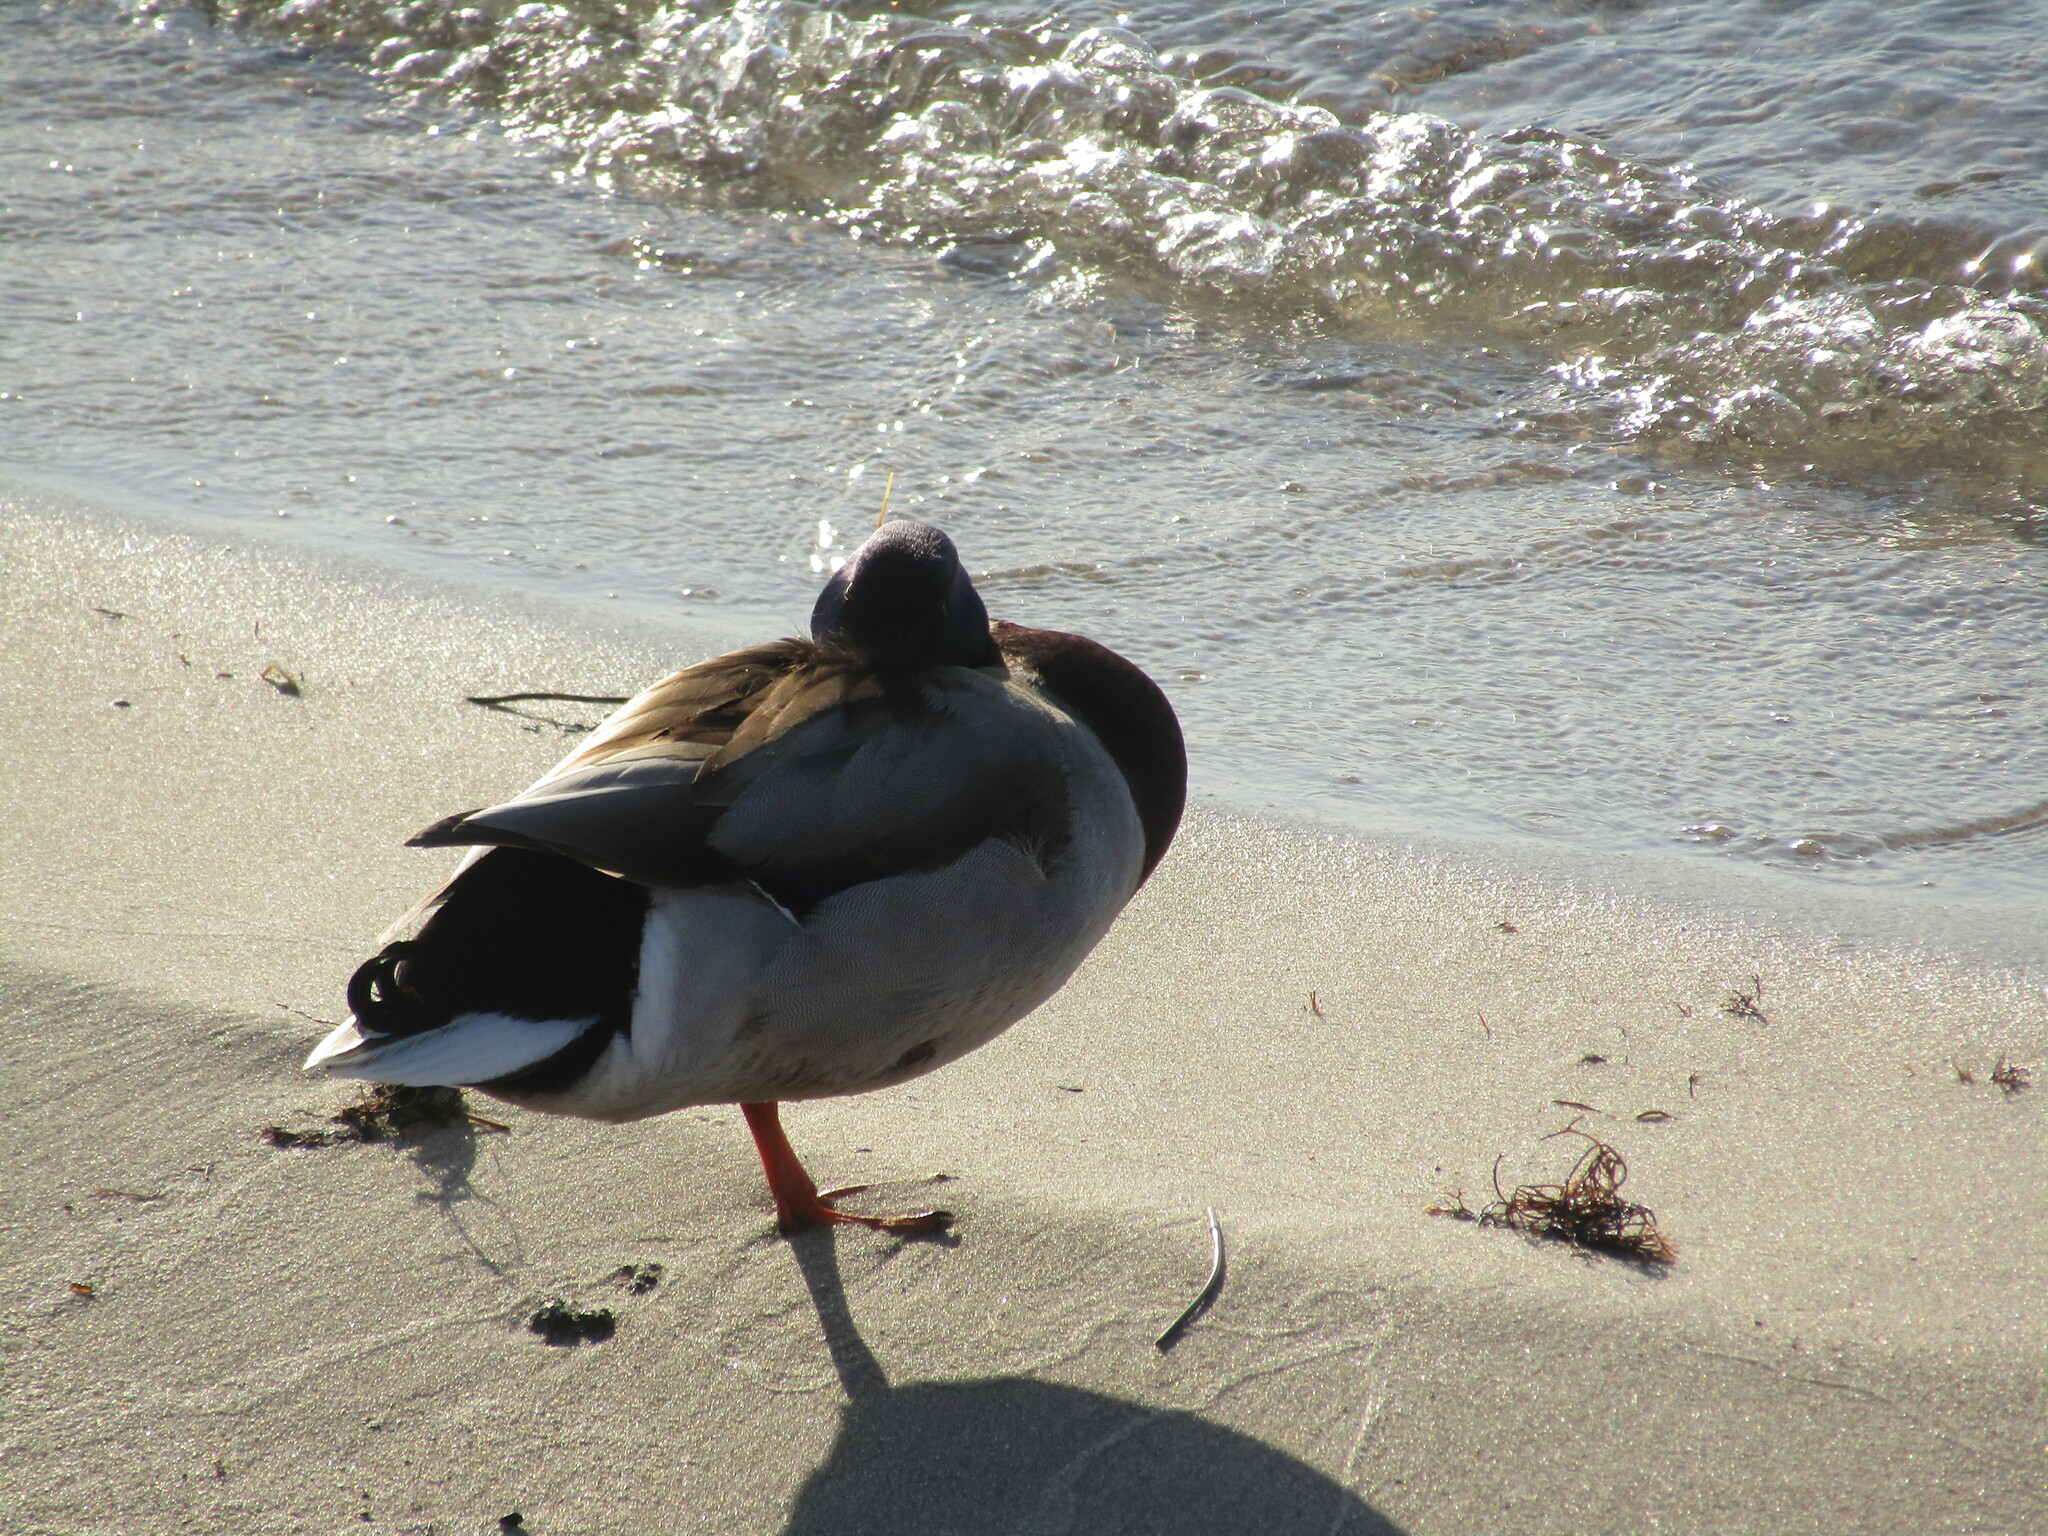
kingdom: Animalia
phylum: Chordata
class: Aves
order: Anseriformes
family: Anatidae
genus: Anas
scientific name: Anas platyrhynchos
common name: Mallard
